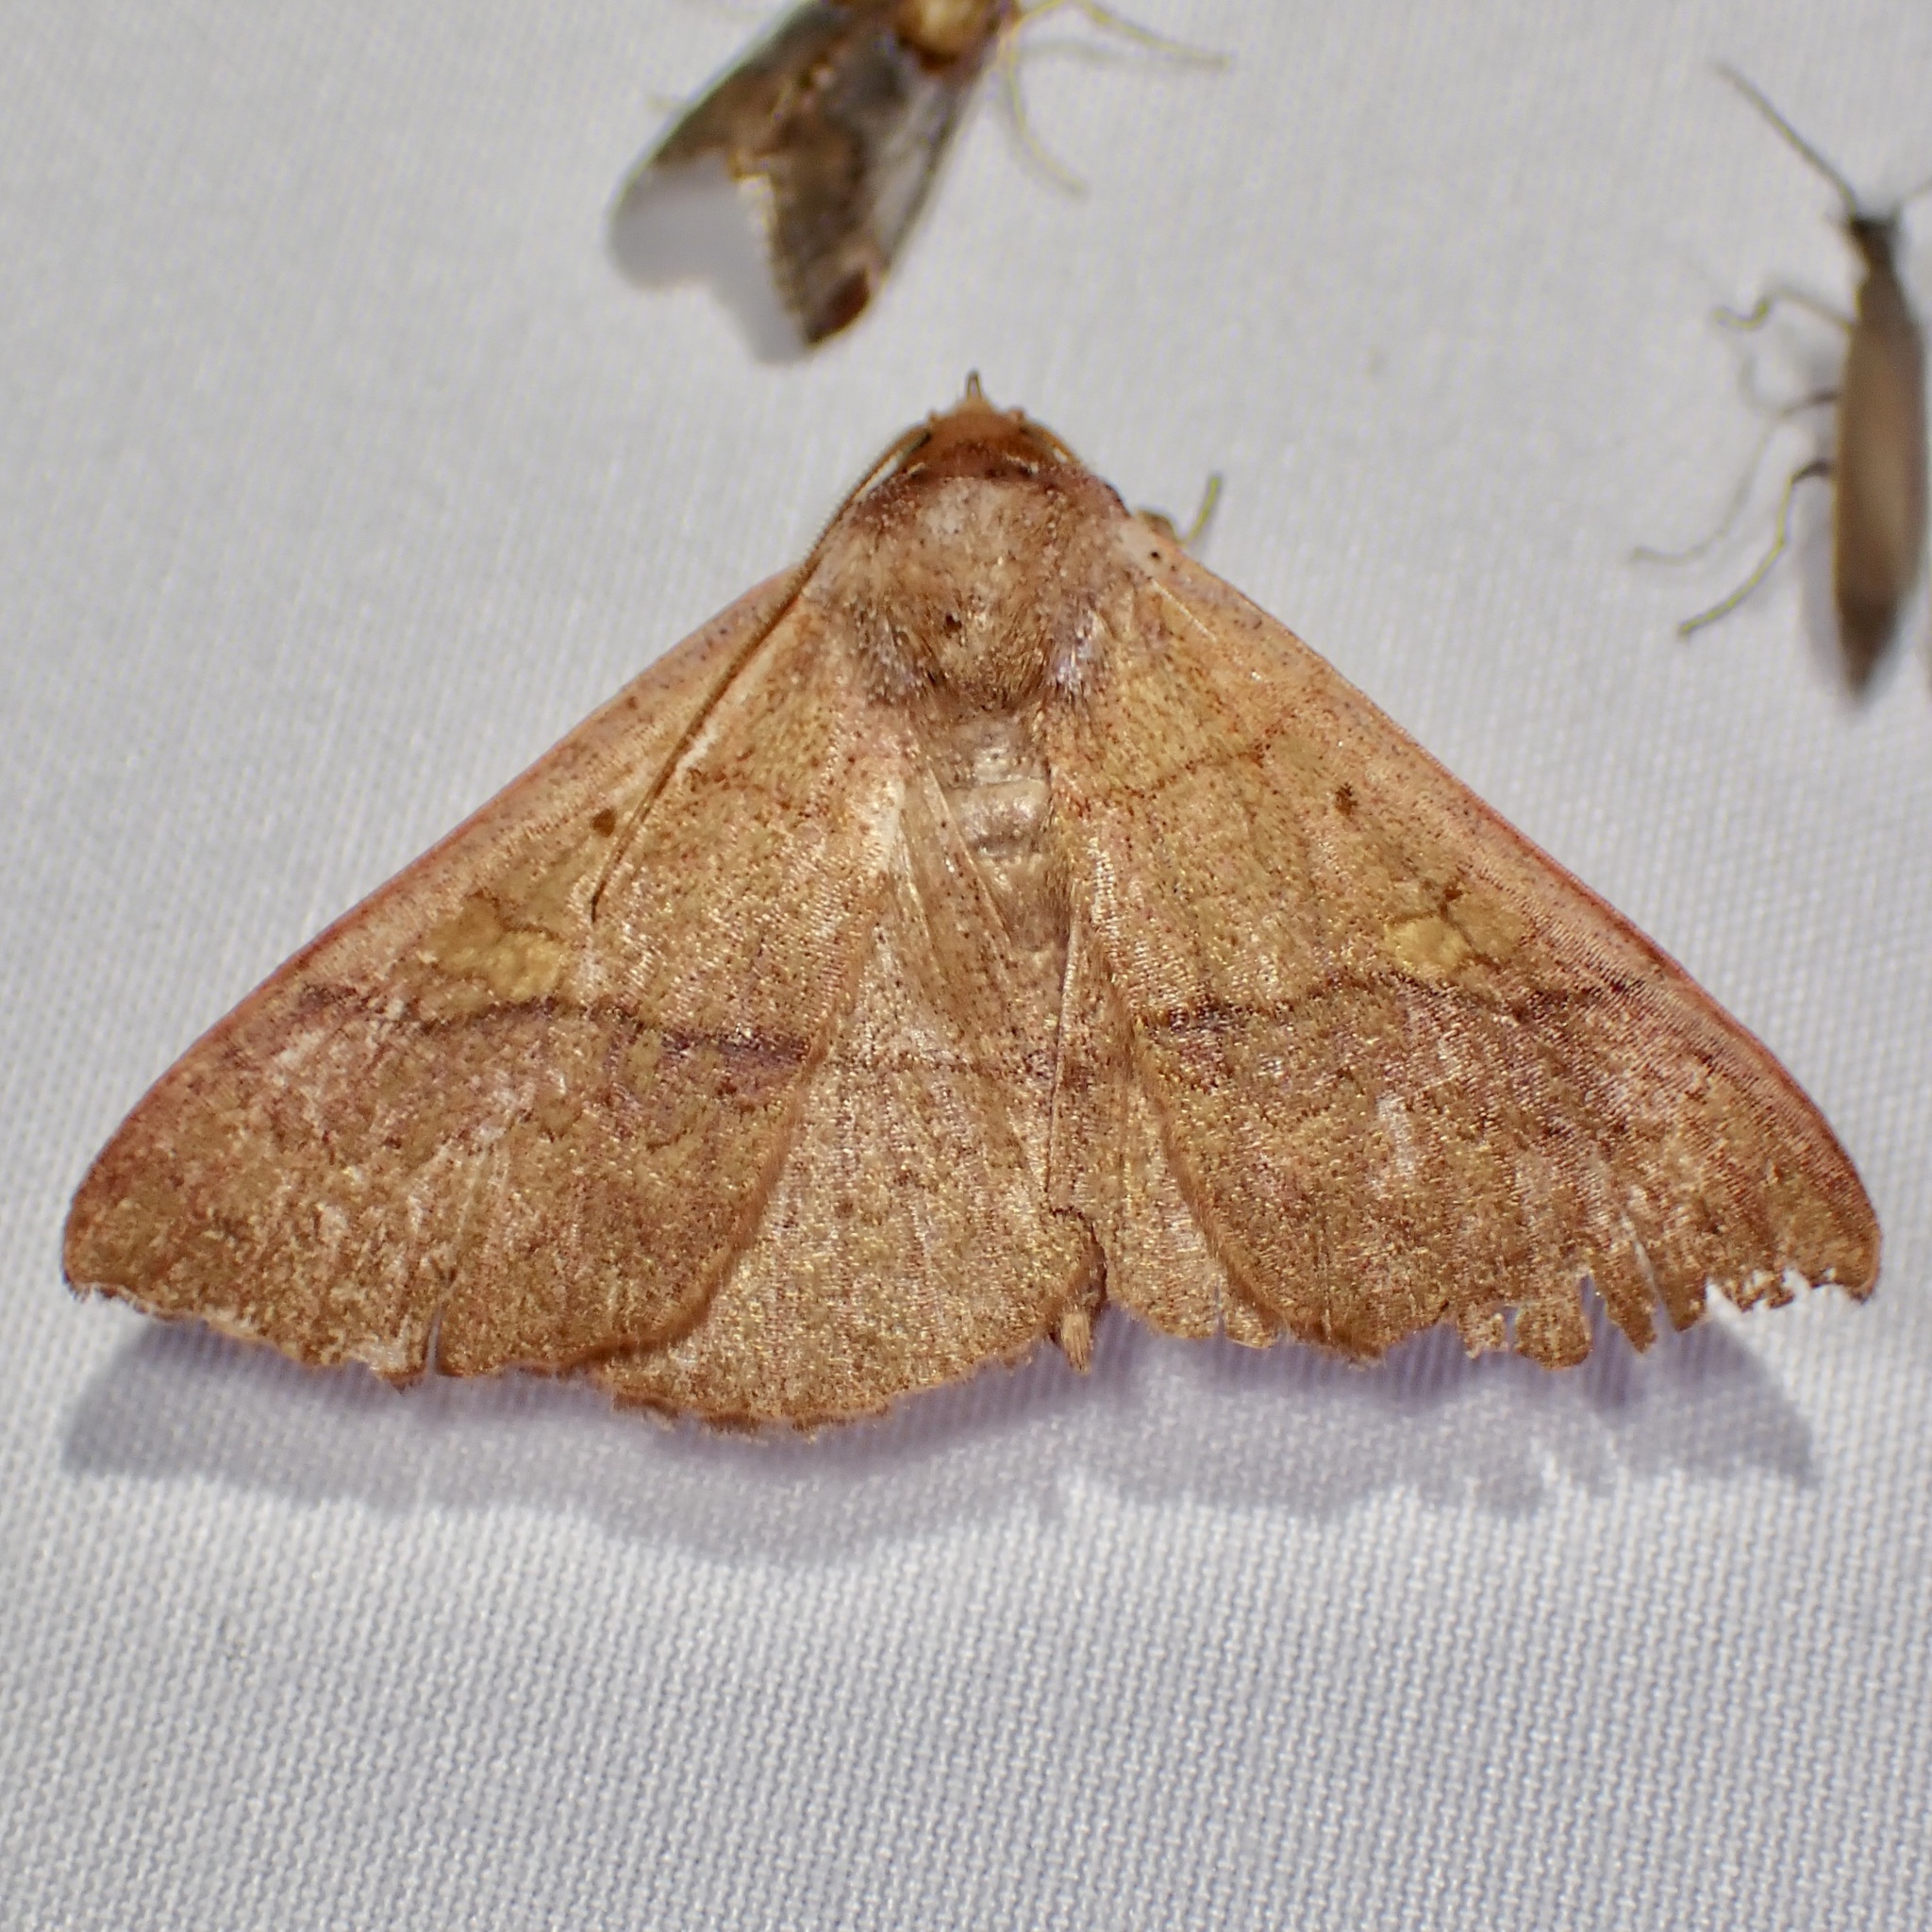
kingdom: Animalia
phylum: Arthropoda
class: Insecta
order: Lepidoptera
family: Erebidae
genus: Panopoda
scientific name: Panopoda rigida
